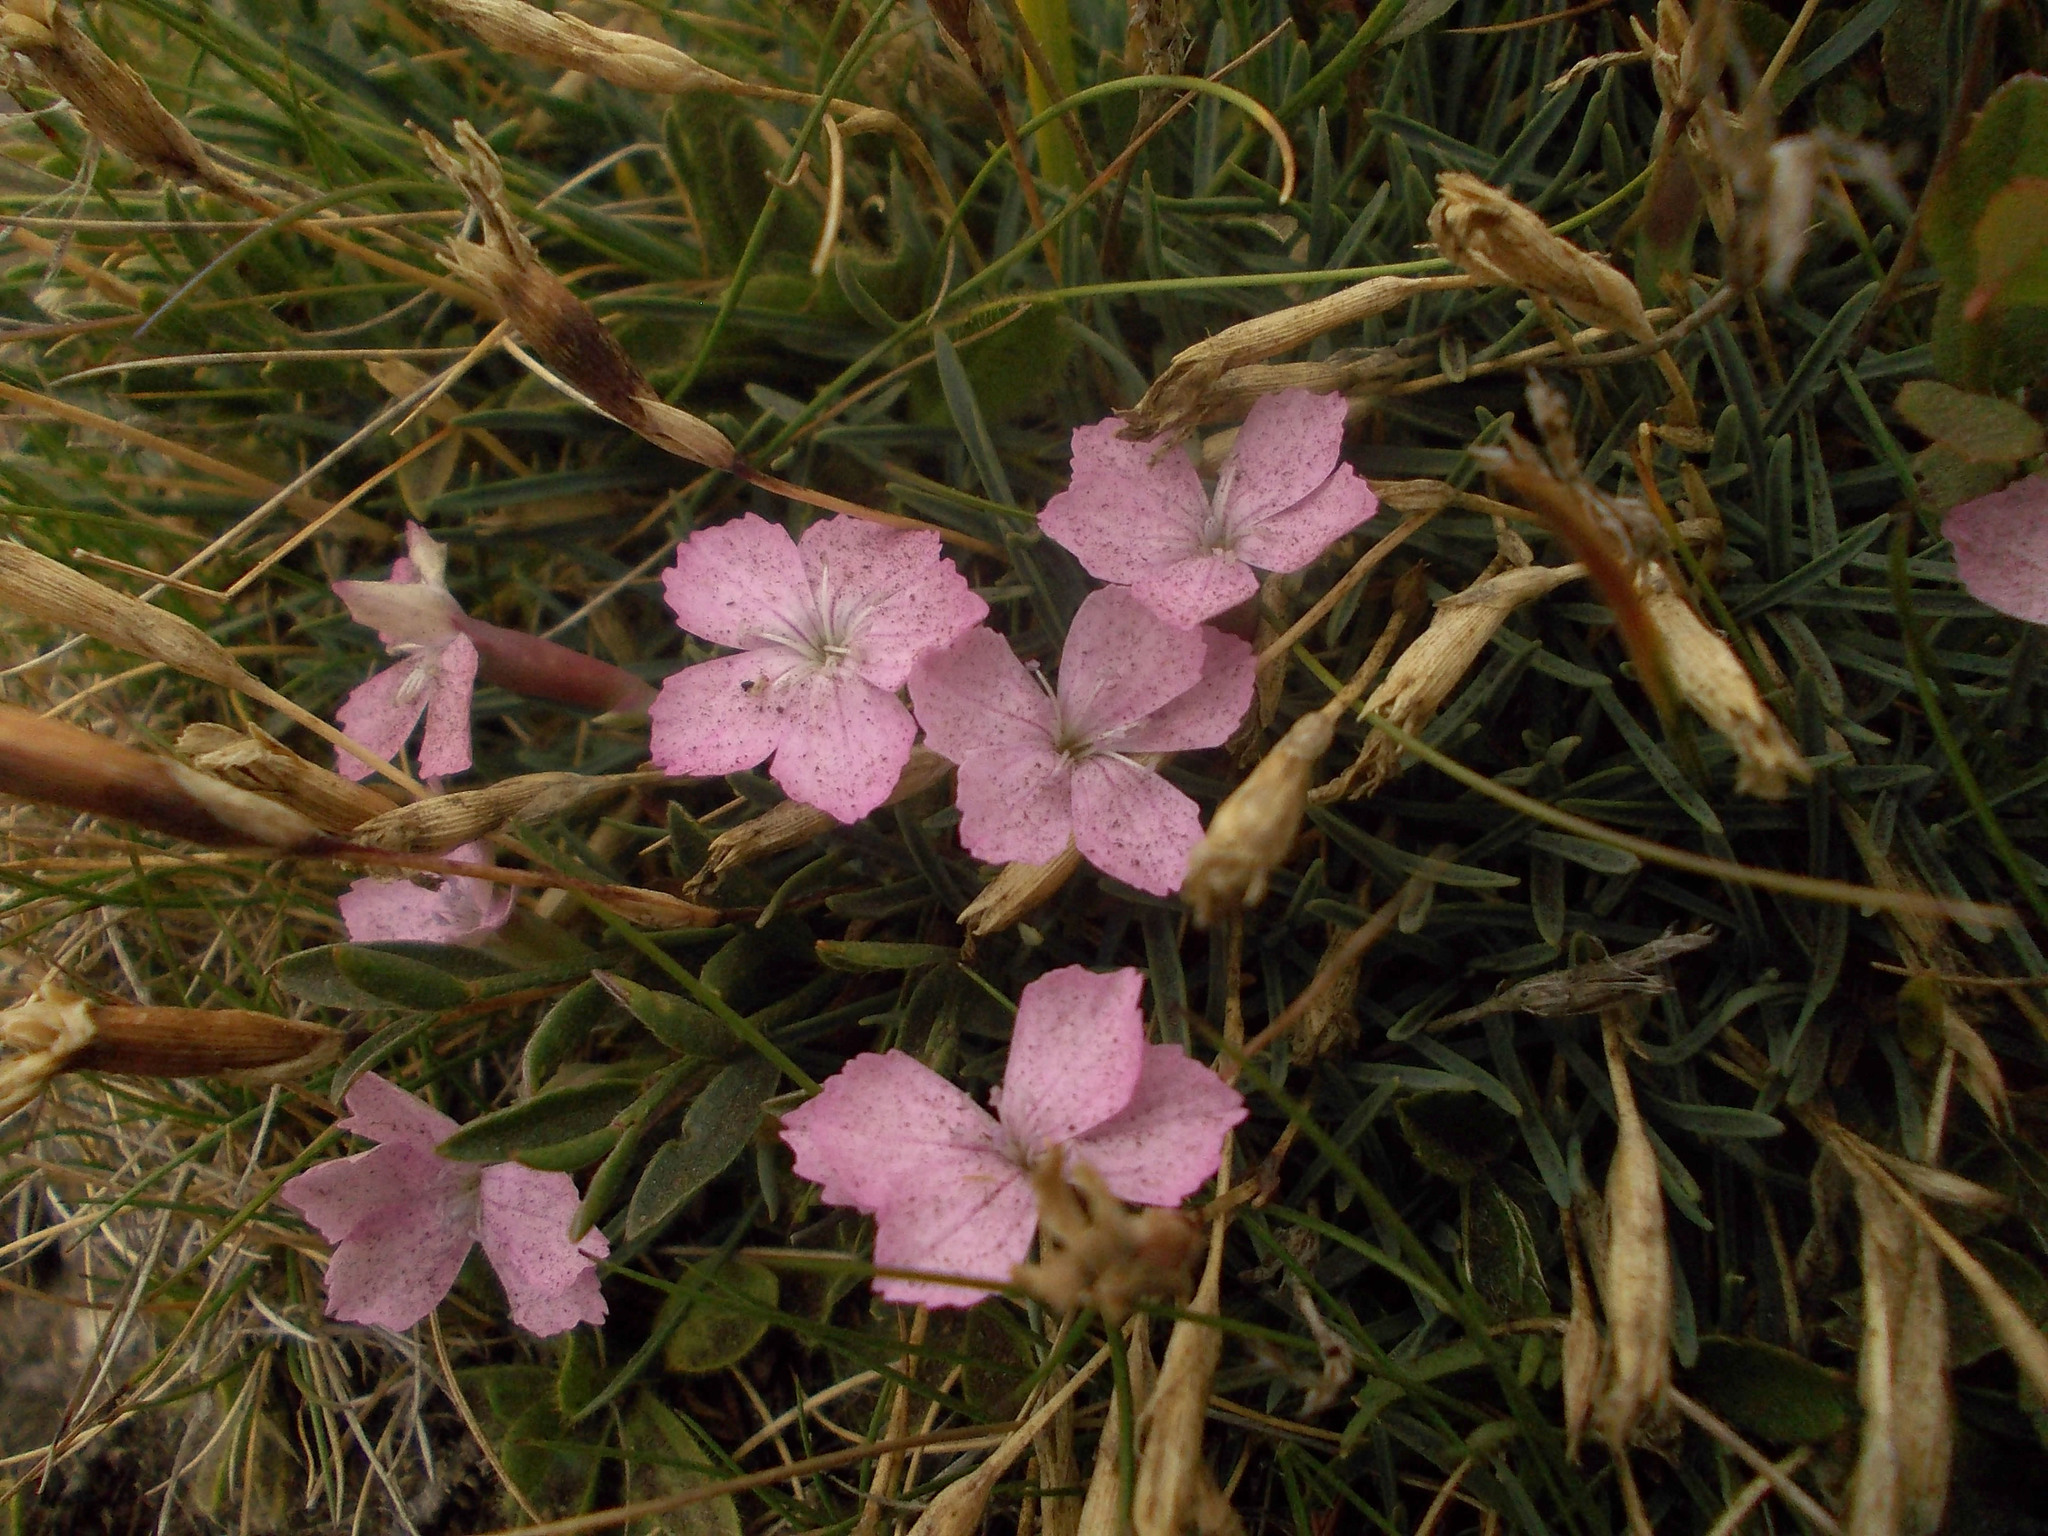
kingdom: Plantae
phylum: Tracheophyta
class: Magnoliopsida
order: Caryophyllales
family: Caryophyllaceae
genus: Dianthus
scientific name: Dianthus microlepis
